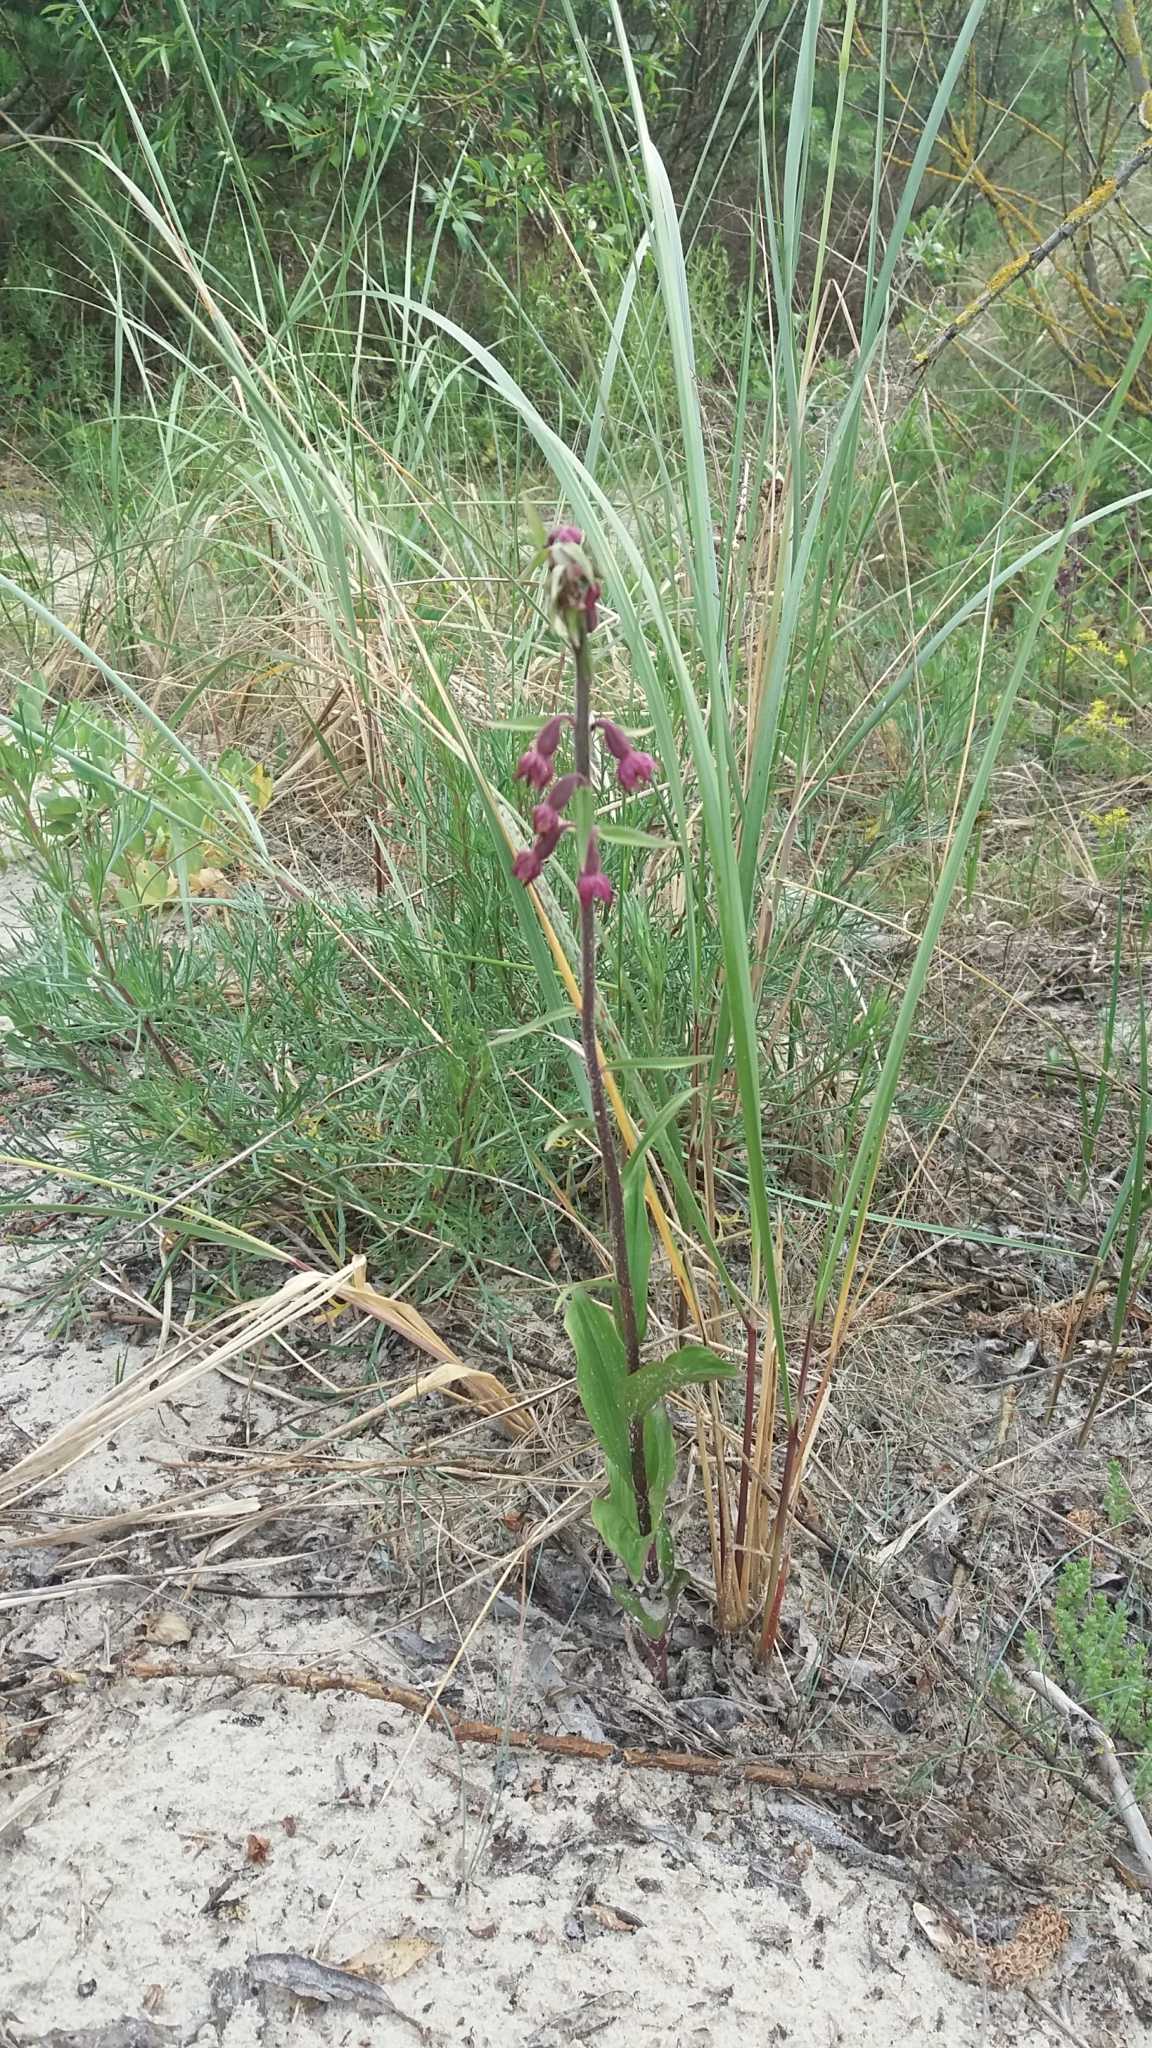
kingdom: Plantae
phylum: Tracheophyta
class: Liliopsida
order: Asparagales
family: Orchidaceae
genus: Epipactis
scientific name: Epipactis atrorubens
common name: Dark-red helleborine
